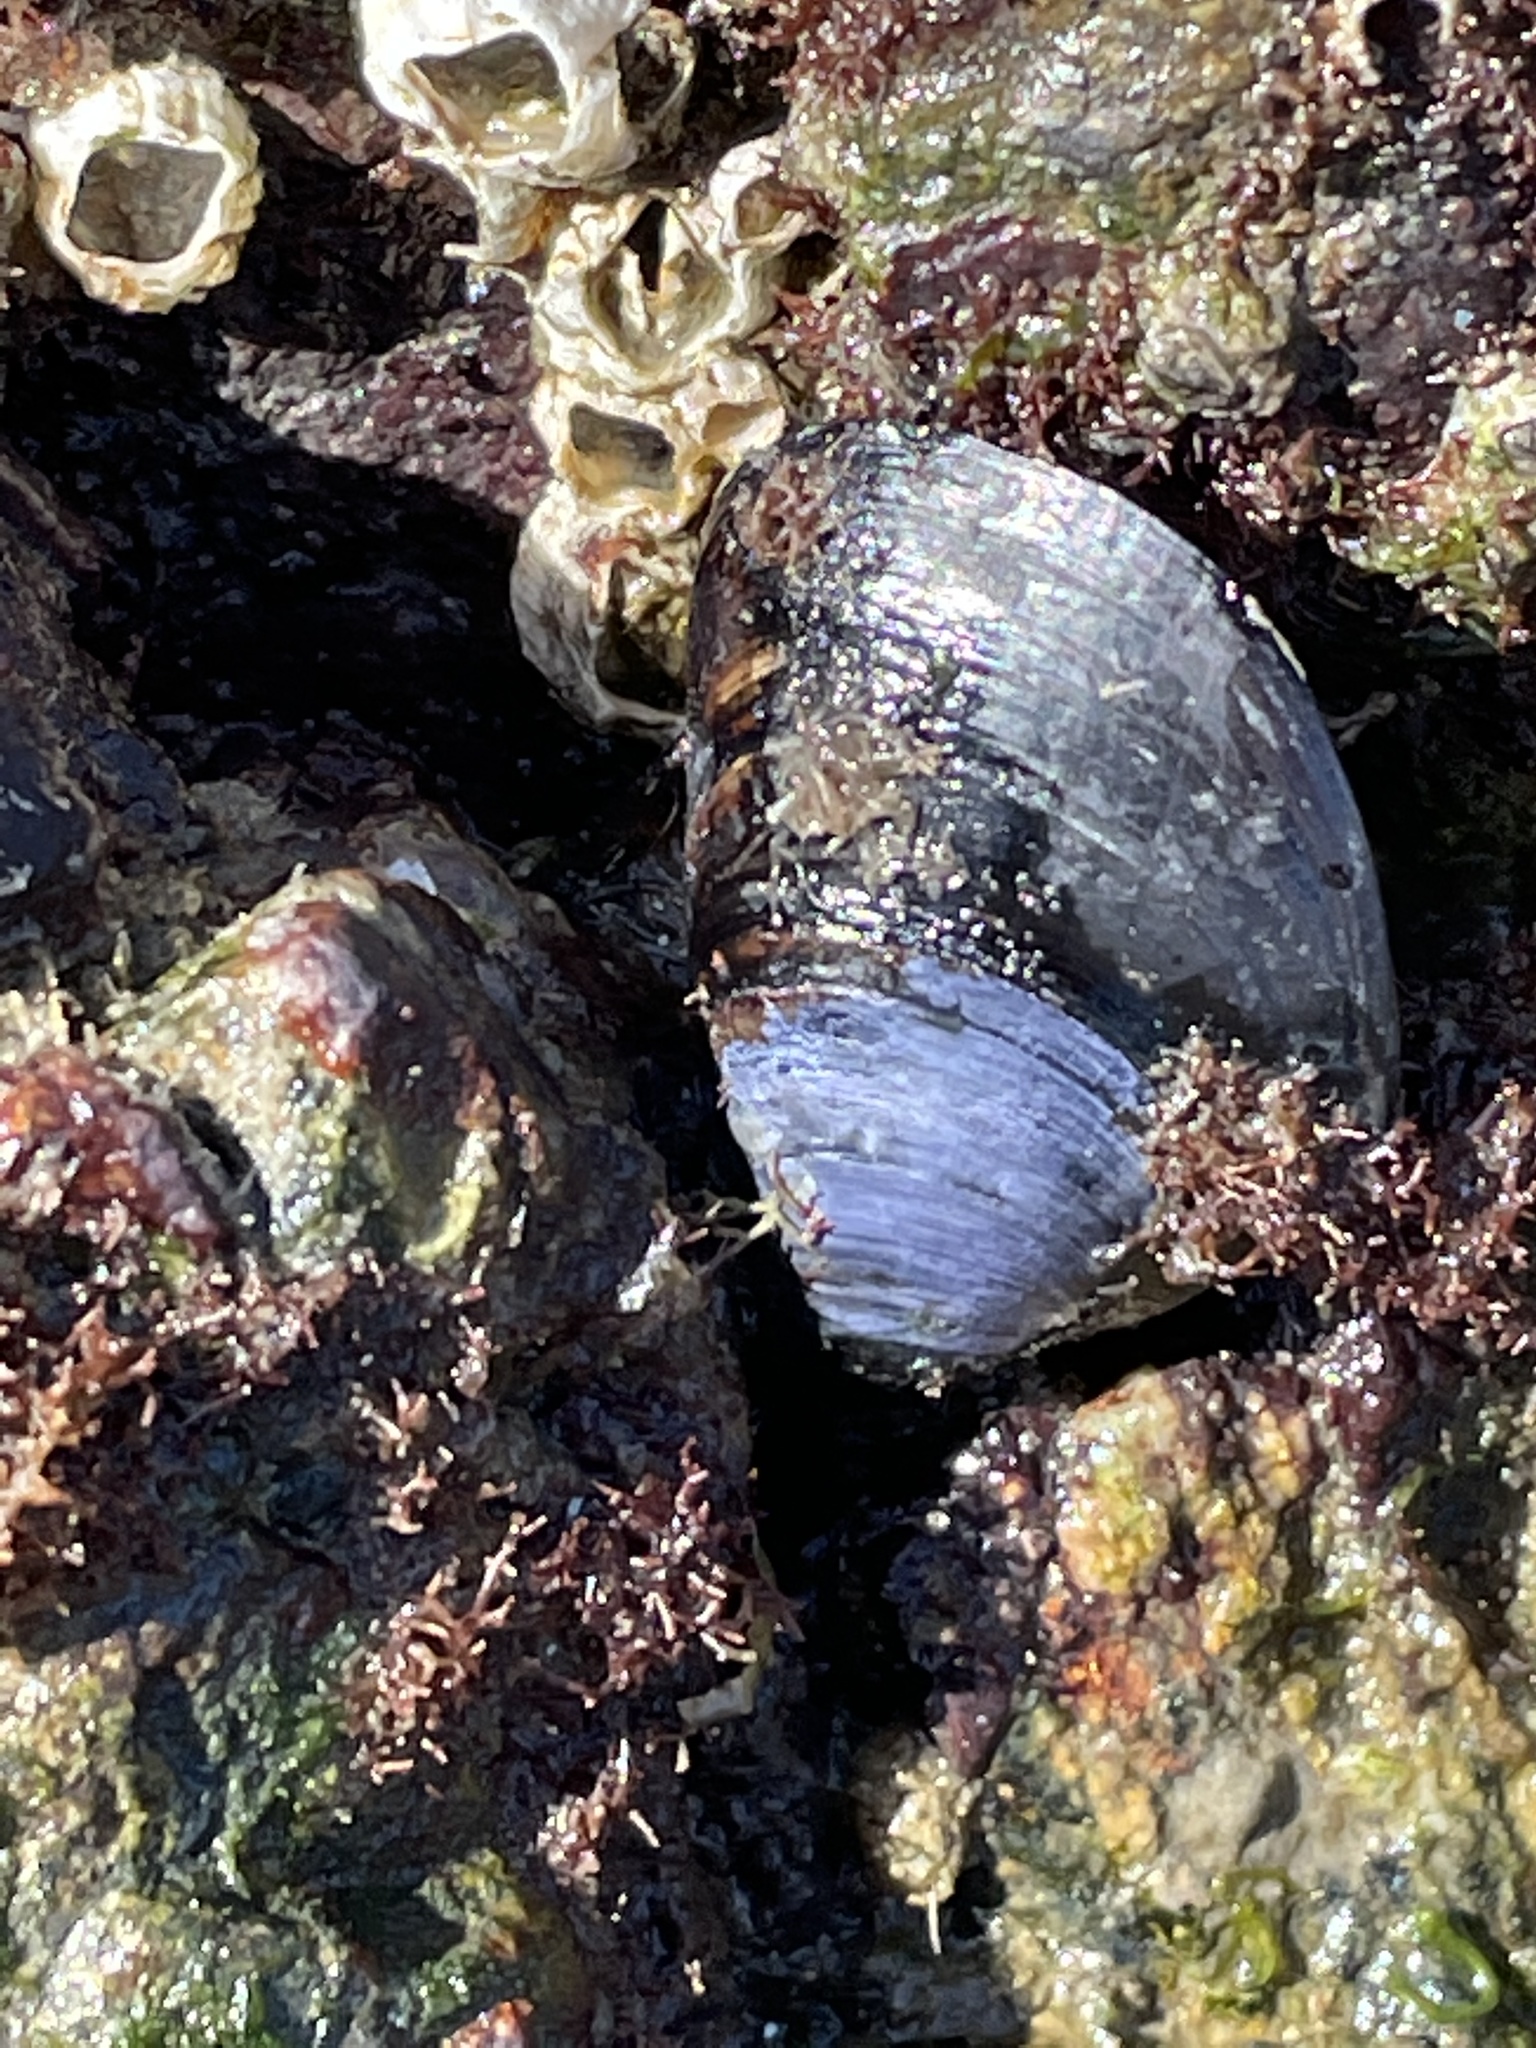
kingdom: Animalia
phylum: Mollusca
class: Bivalvia
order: Mytilida
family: Mytilidae
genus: Mytilus
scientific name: Mytilus
